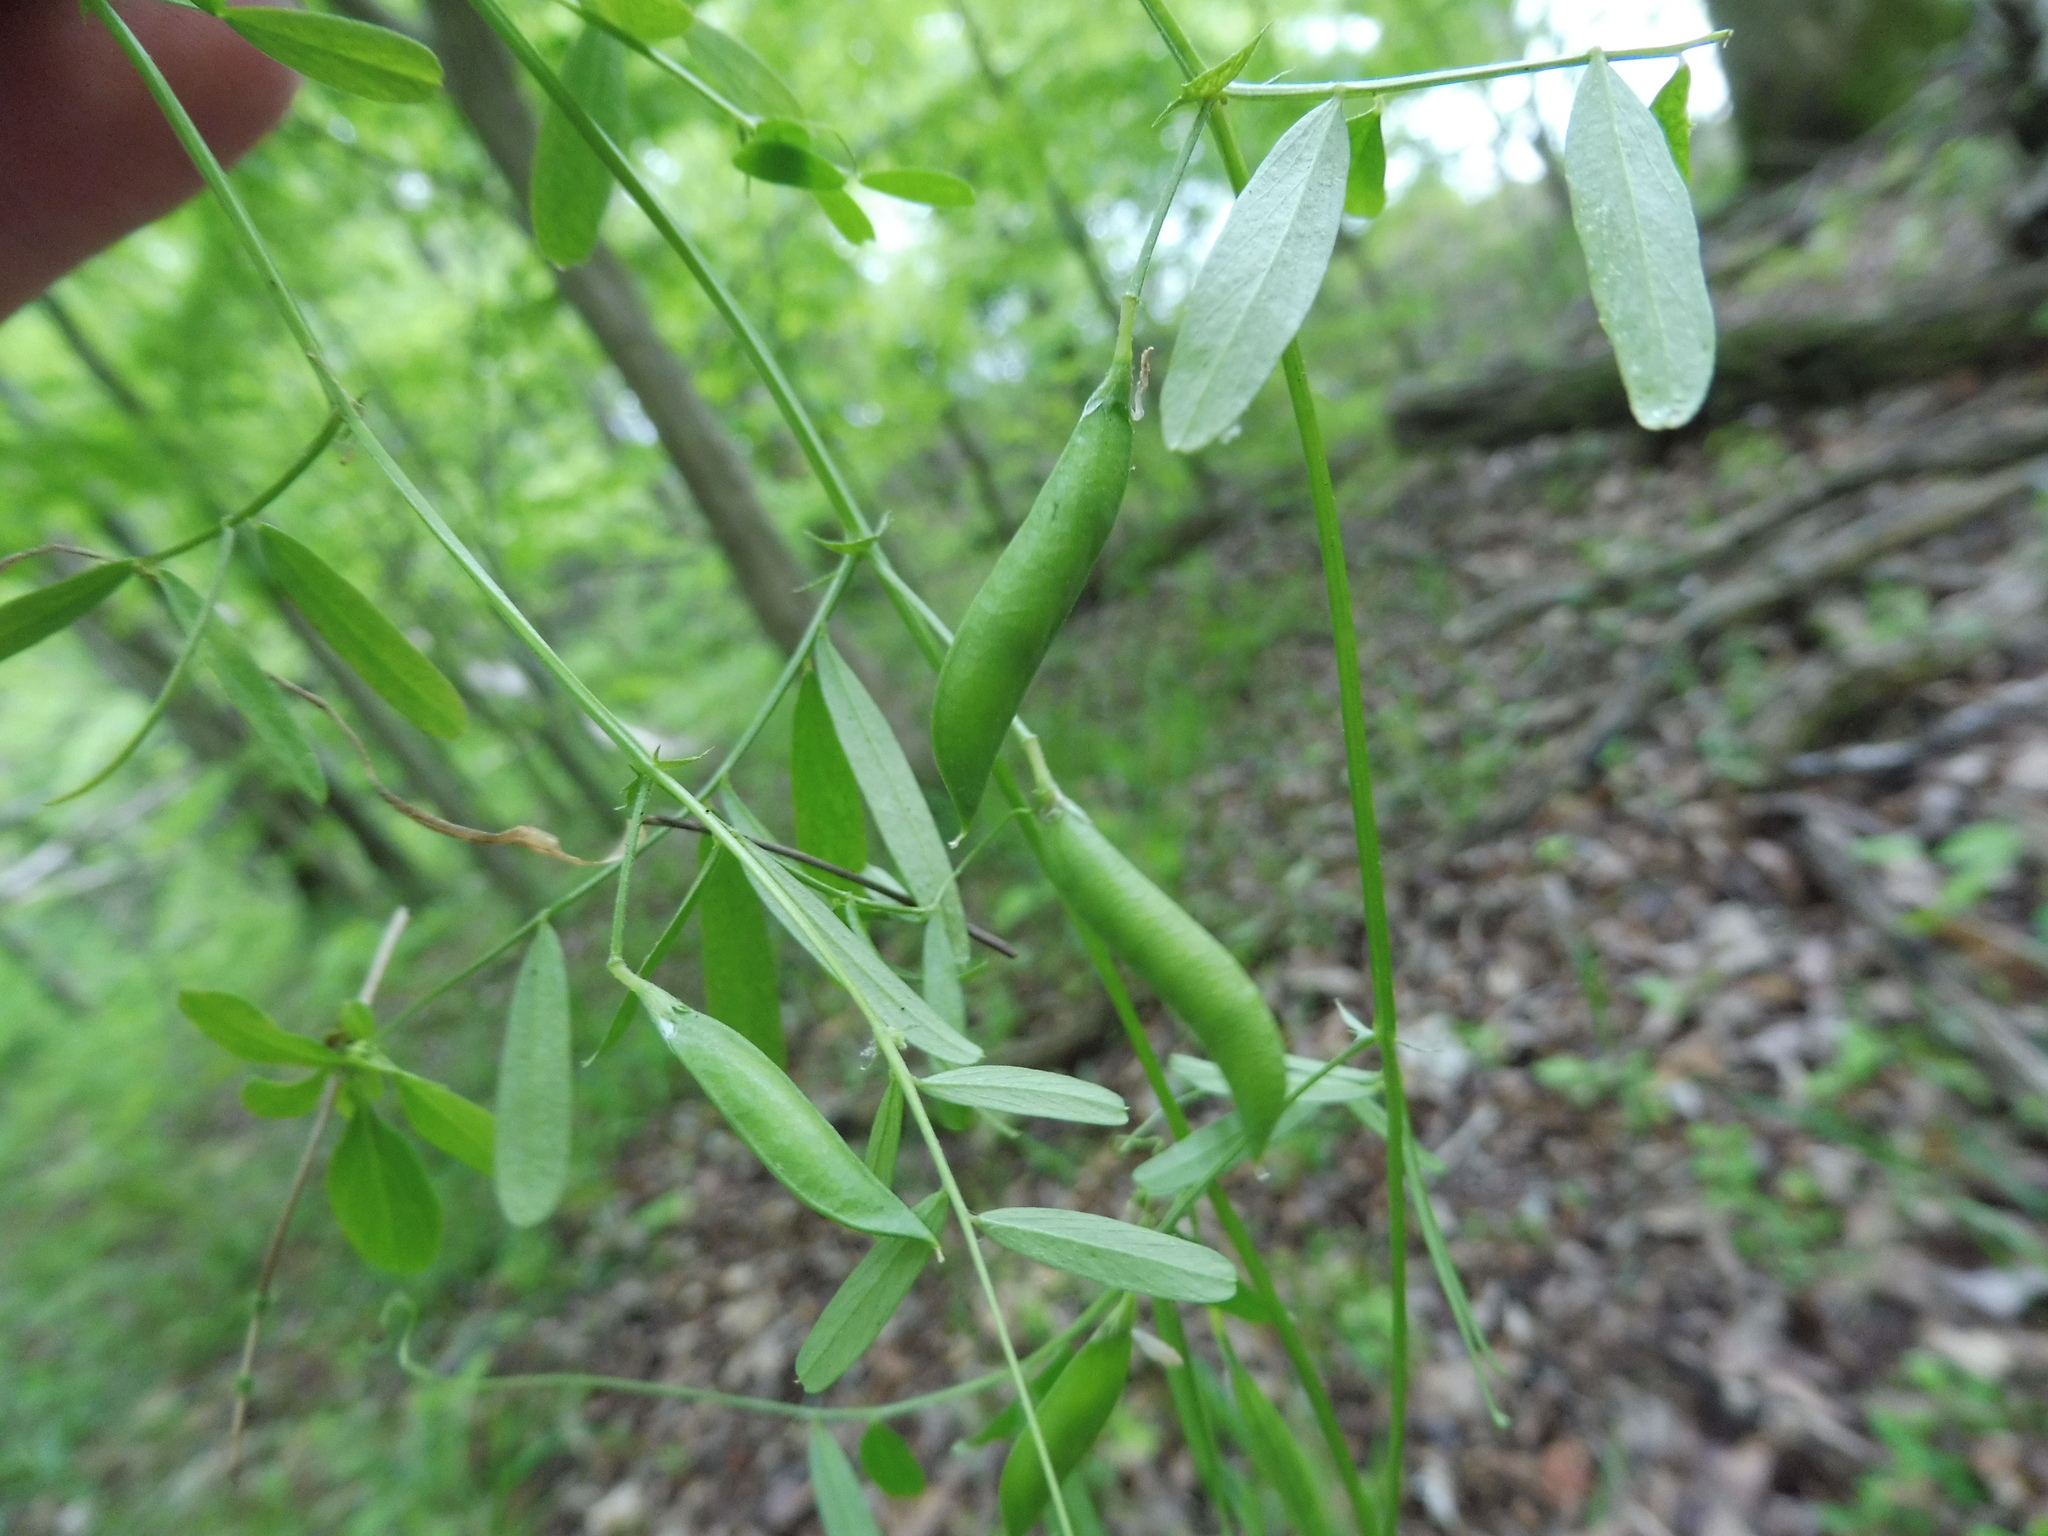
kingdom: Plantae
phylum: Tracheophyta
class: Magnoliopsida
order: Fabales
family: Fabaceae
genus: Vicia
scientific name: Vicia minutiflora
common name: Pygmy-flower vetch
